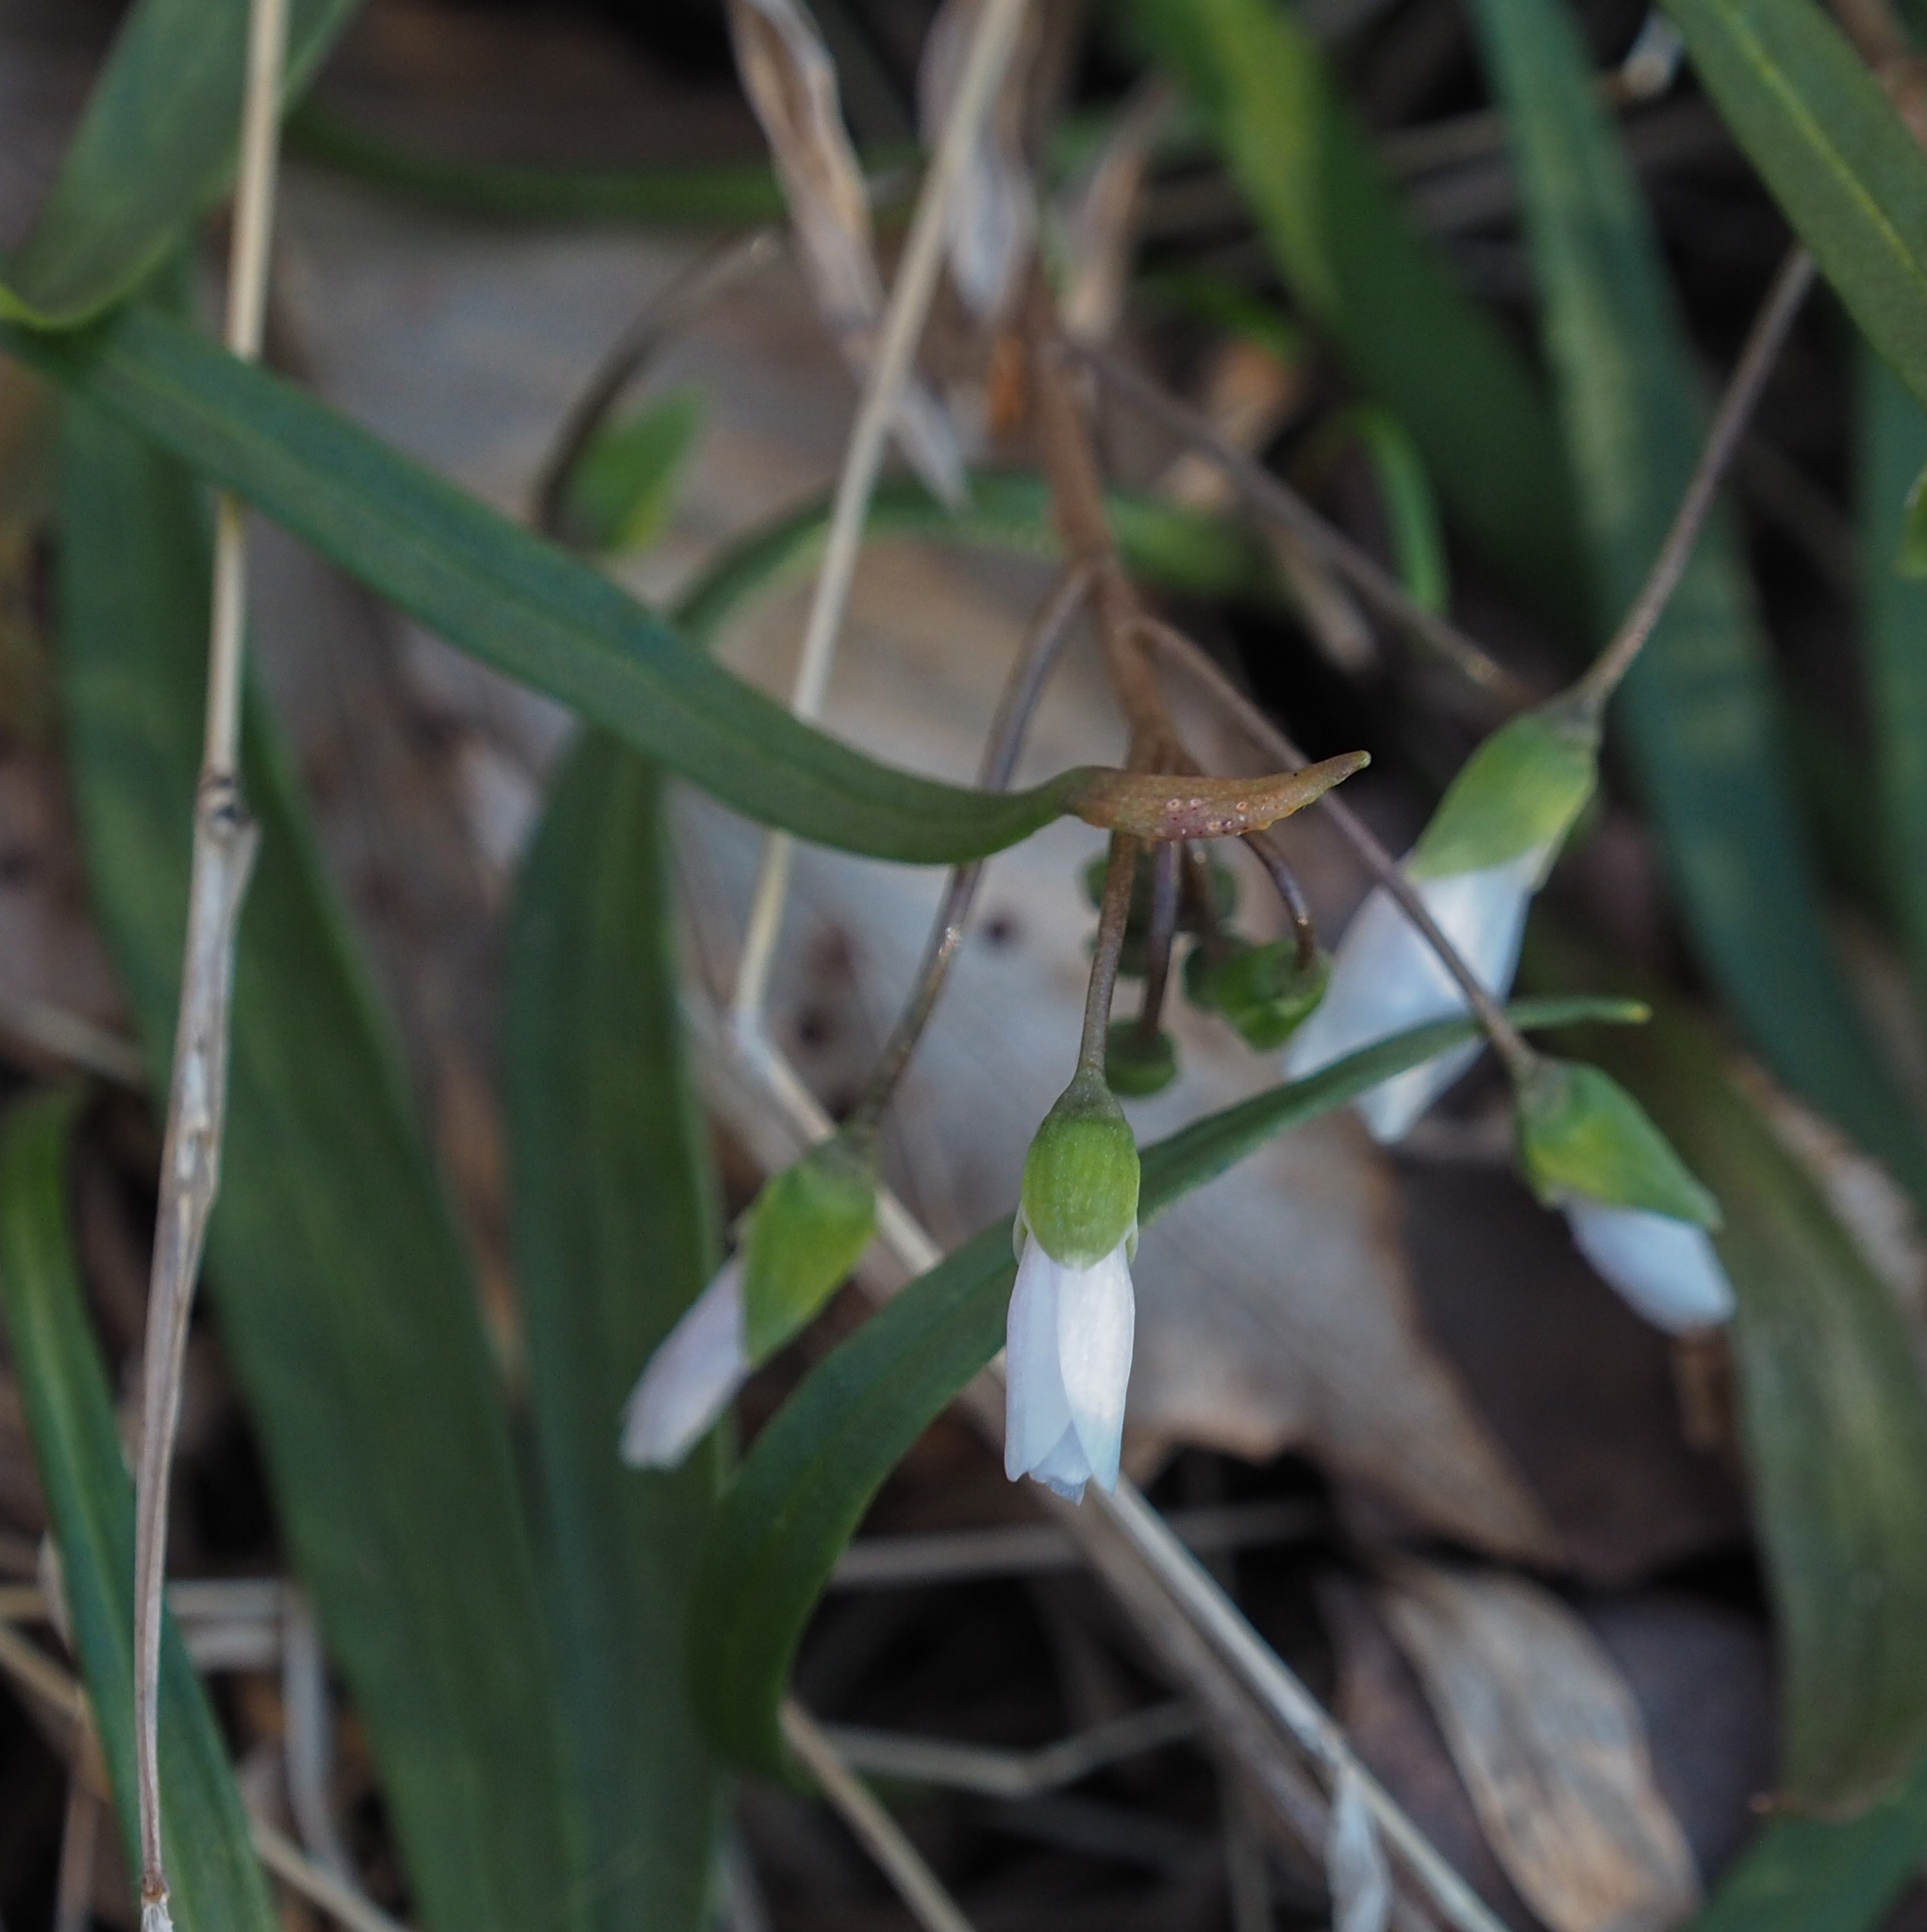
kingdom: Plantae
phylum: Tracheophyta
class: Magnoliopsida
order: Caryophyllales
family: Montiaceae
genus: Claytonia
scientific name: Claytonia virginica
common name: Virginia springbeauty
